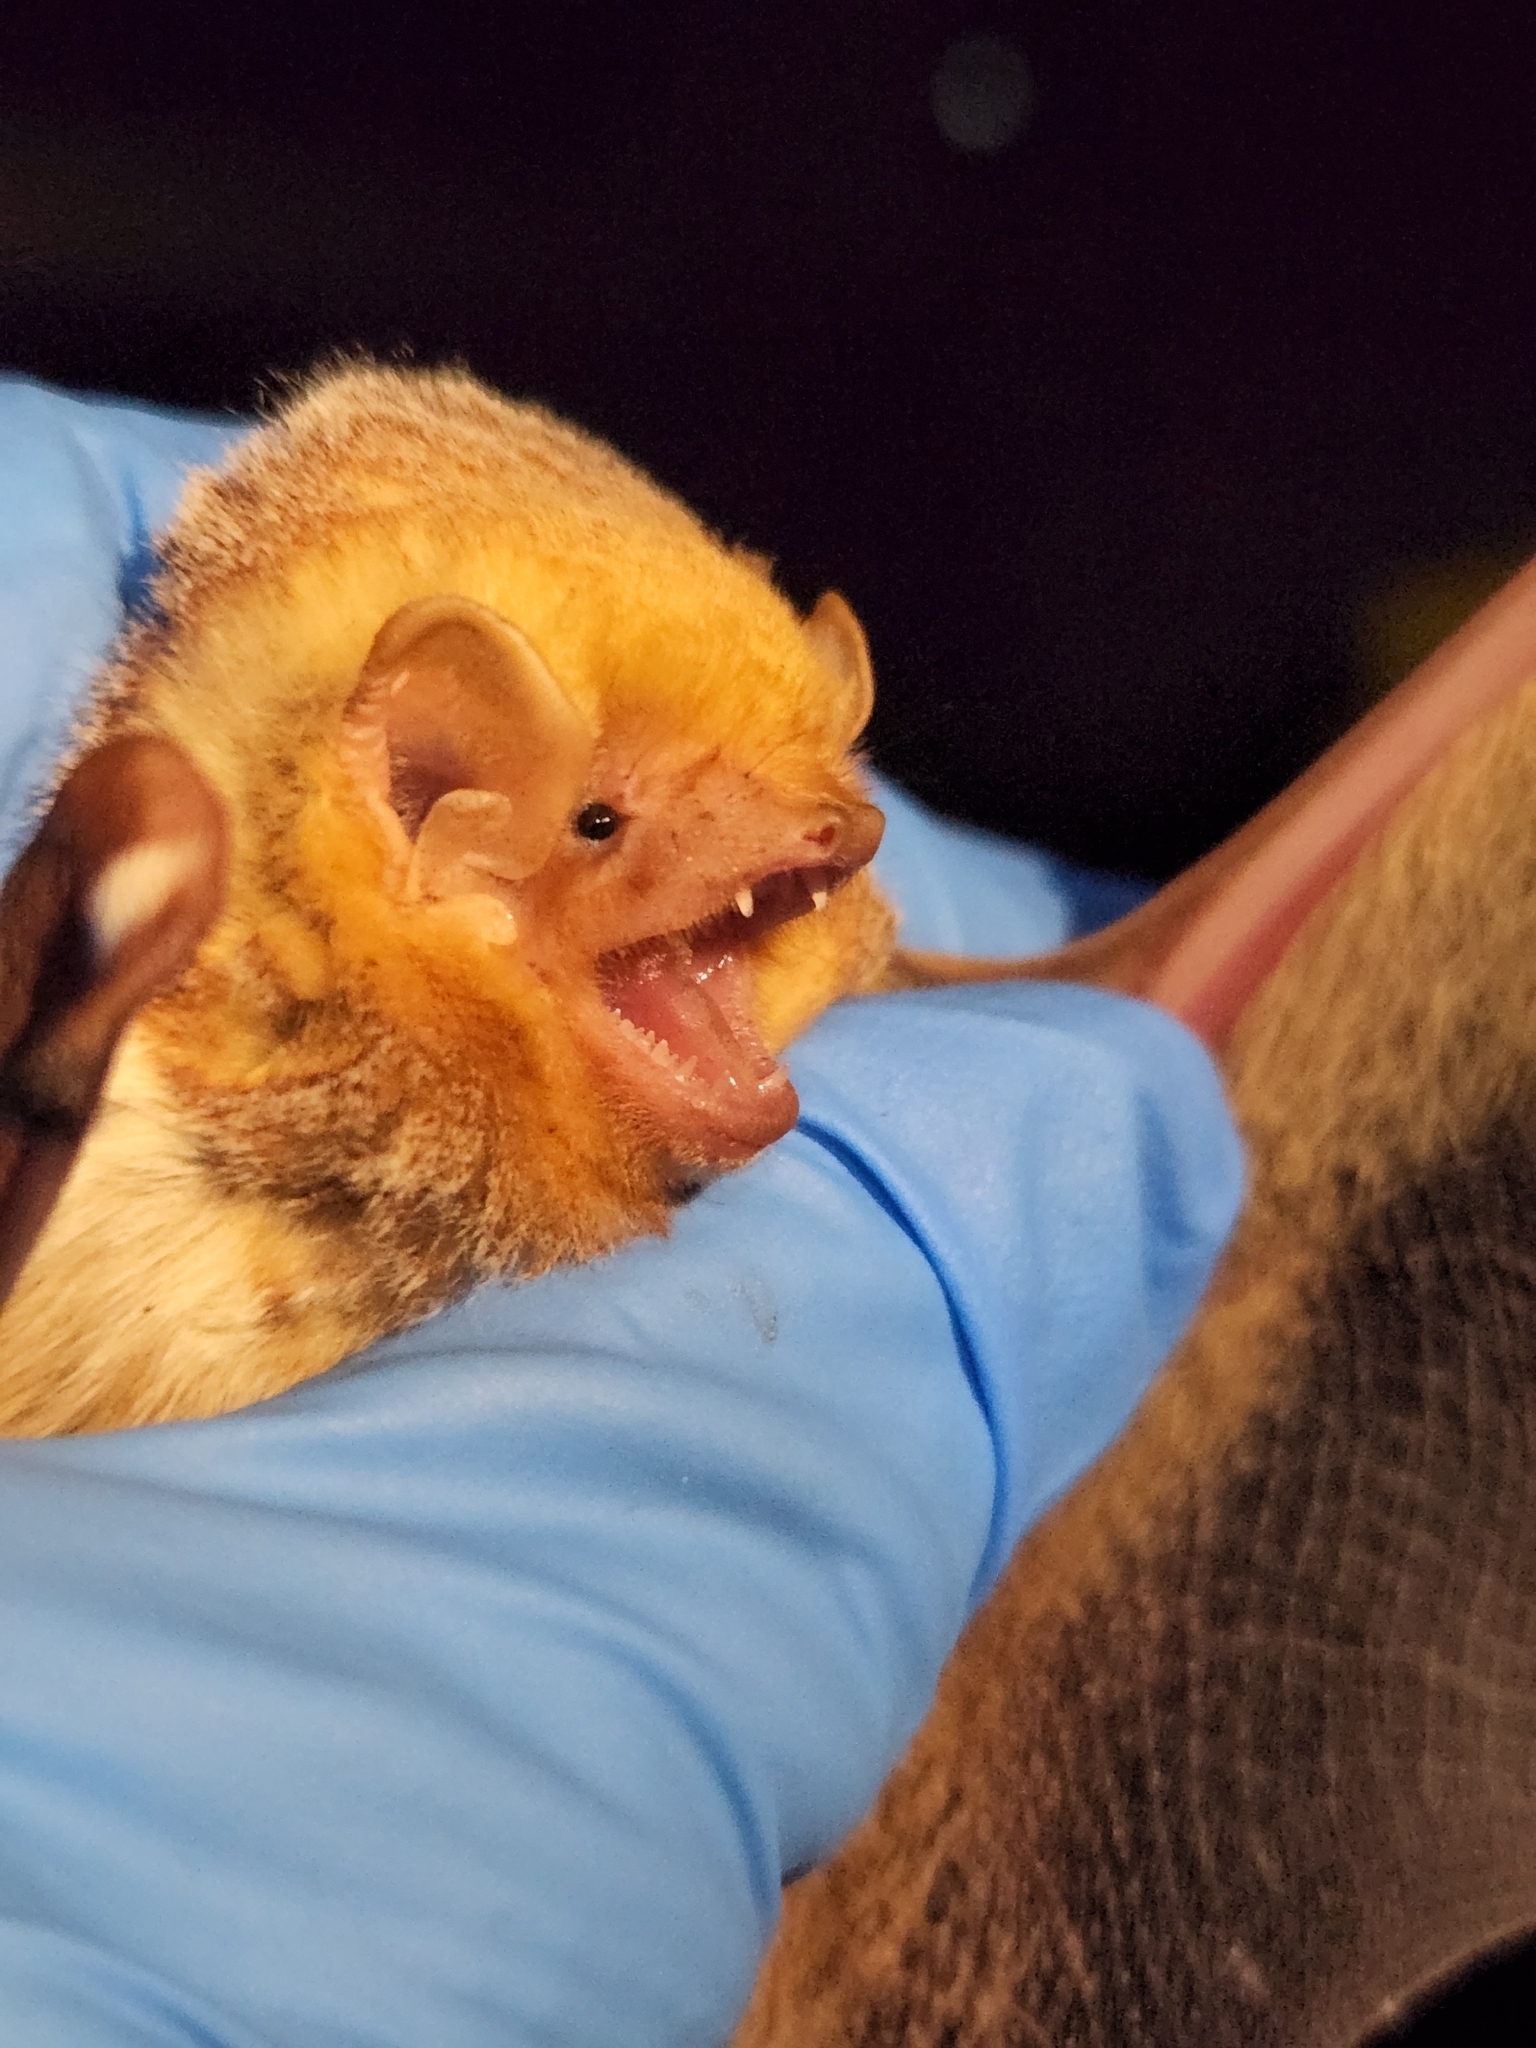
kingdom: Animalia
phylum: Chordata
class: Mammalia
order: Chiroptera
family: Vespertilionidae
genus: Lasiurus
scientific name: Lasiurus borealis
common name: Eastern red bat
